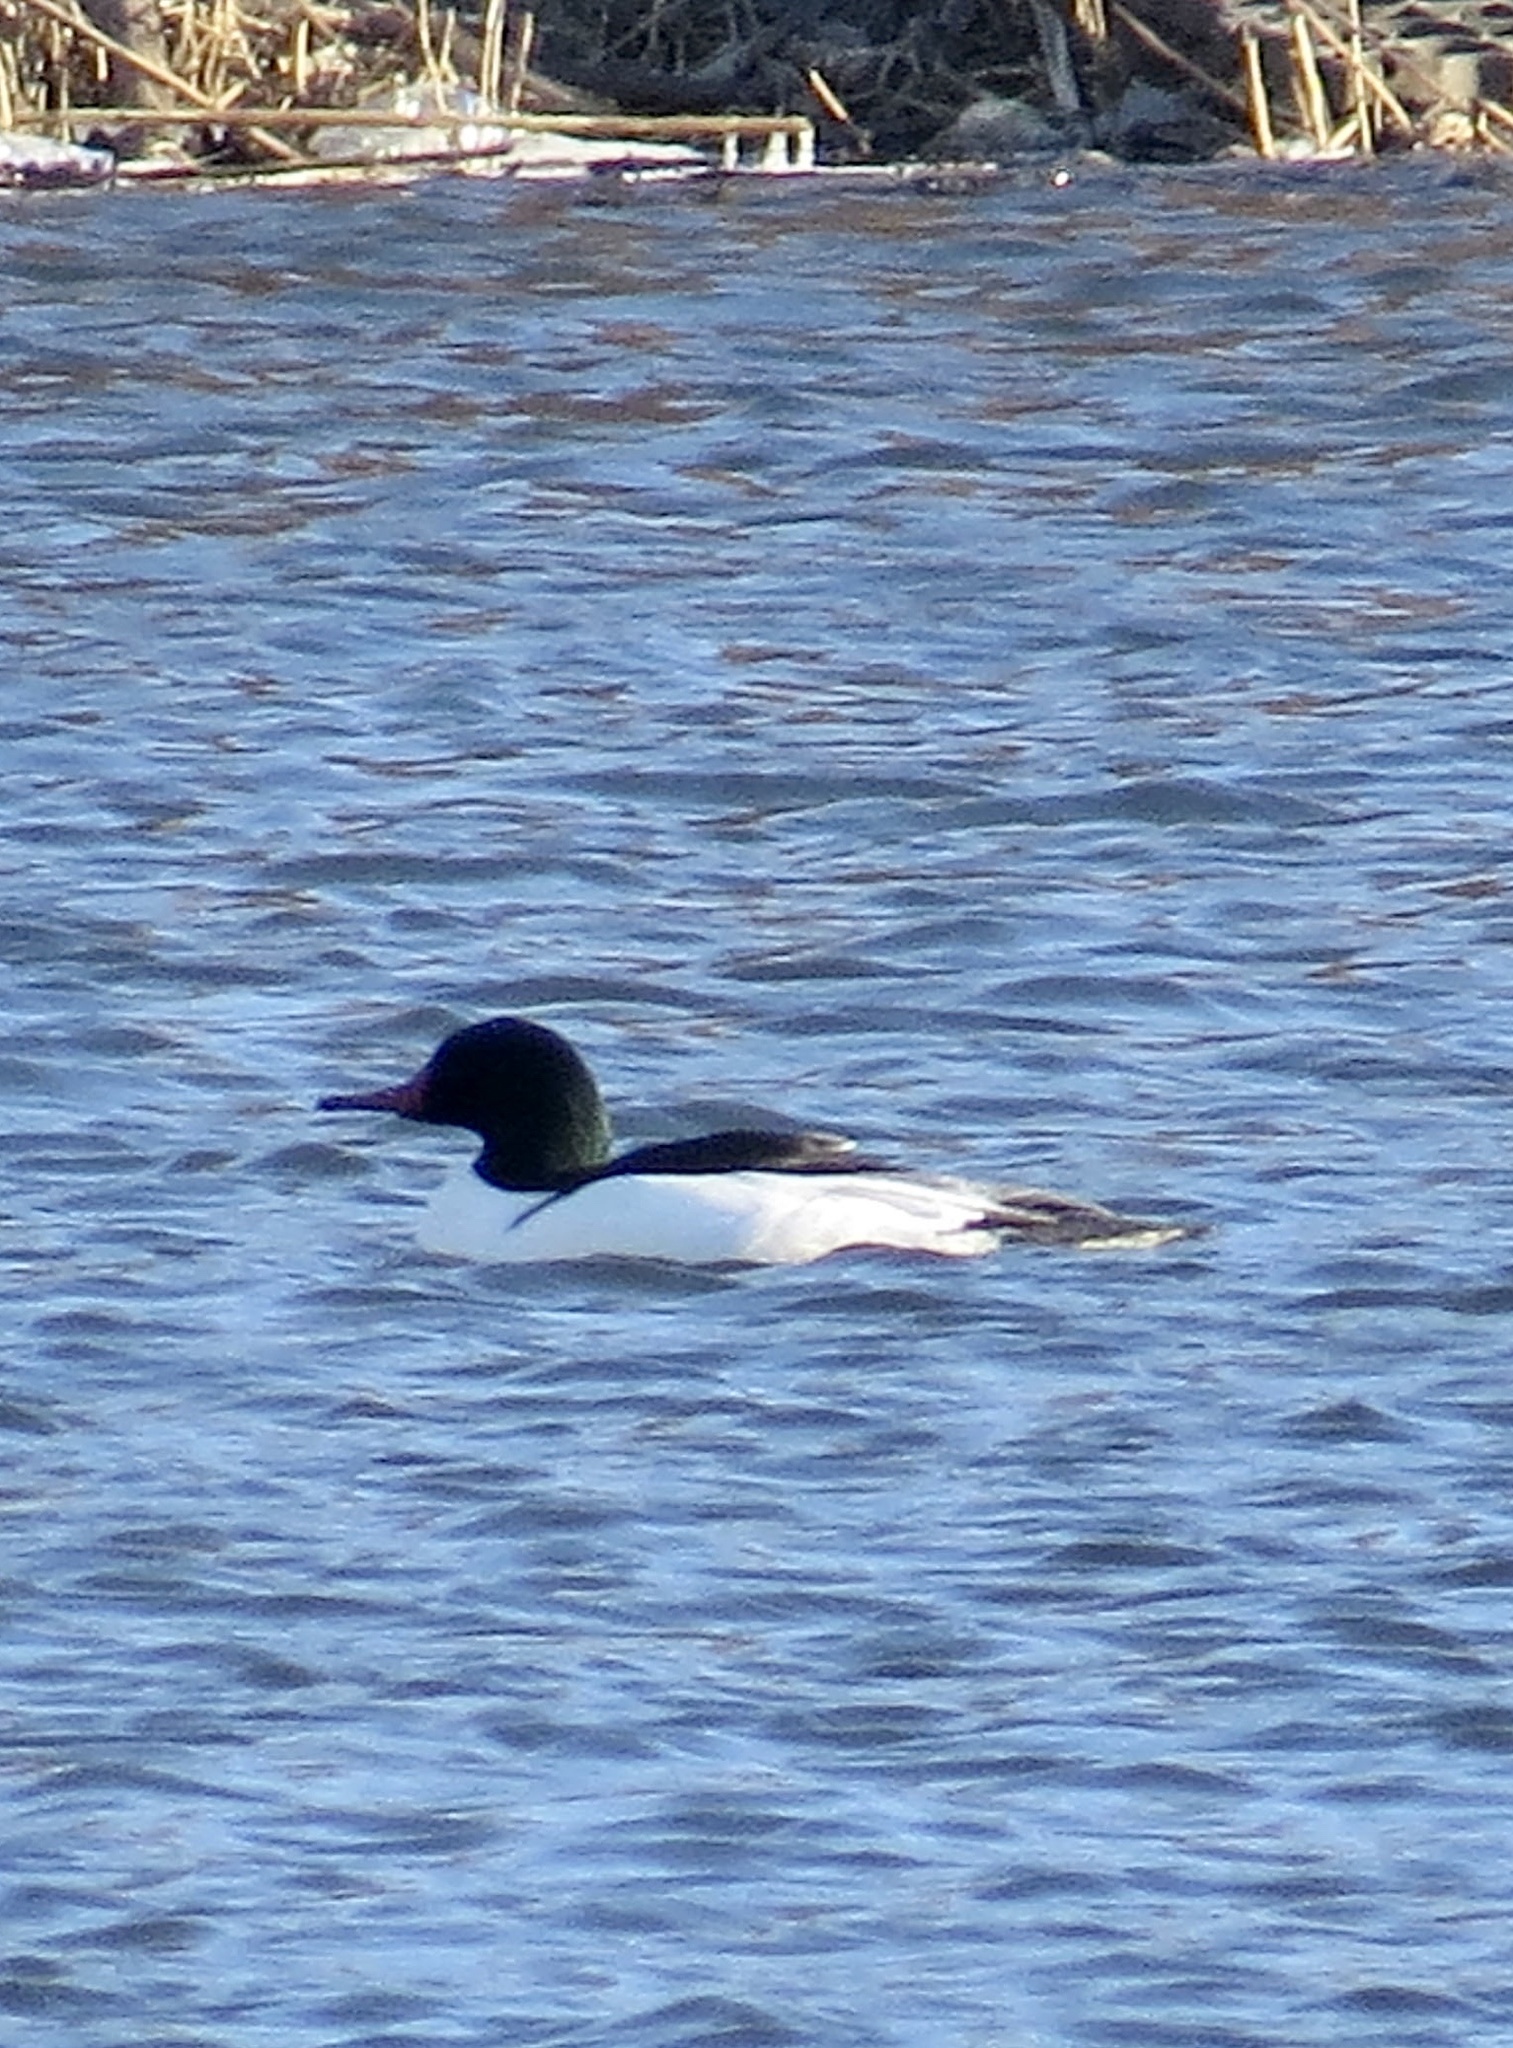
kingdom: Animalia
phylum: Chordata
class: Aves
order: Anseriformes
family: Anatidae
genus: Mergus
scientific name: Mergus merganser
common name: Common merganser
